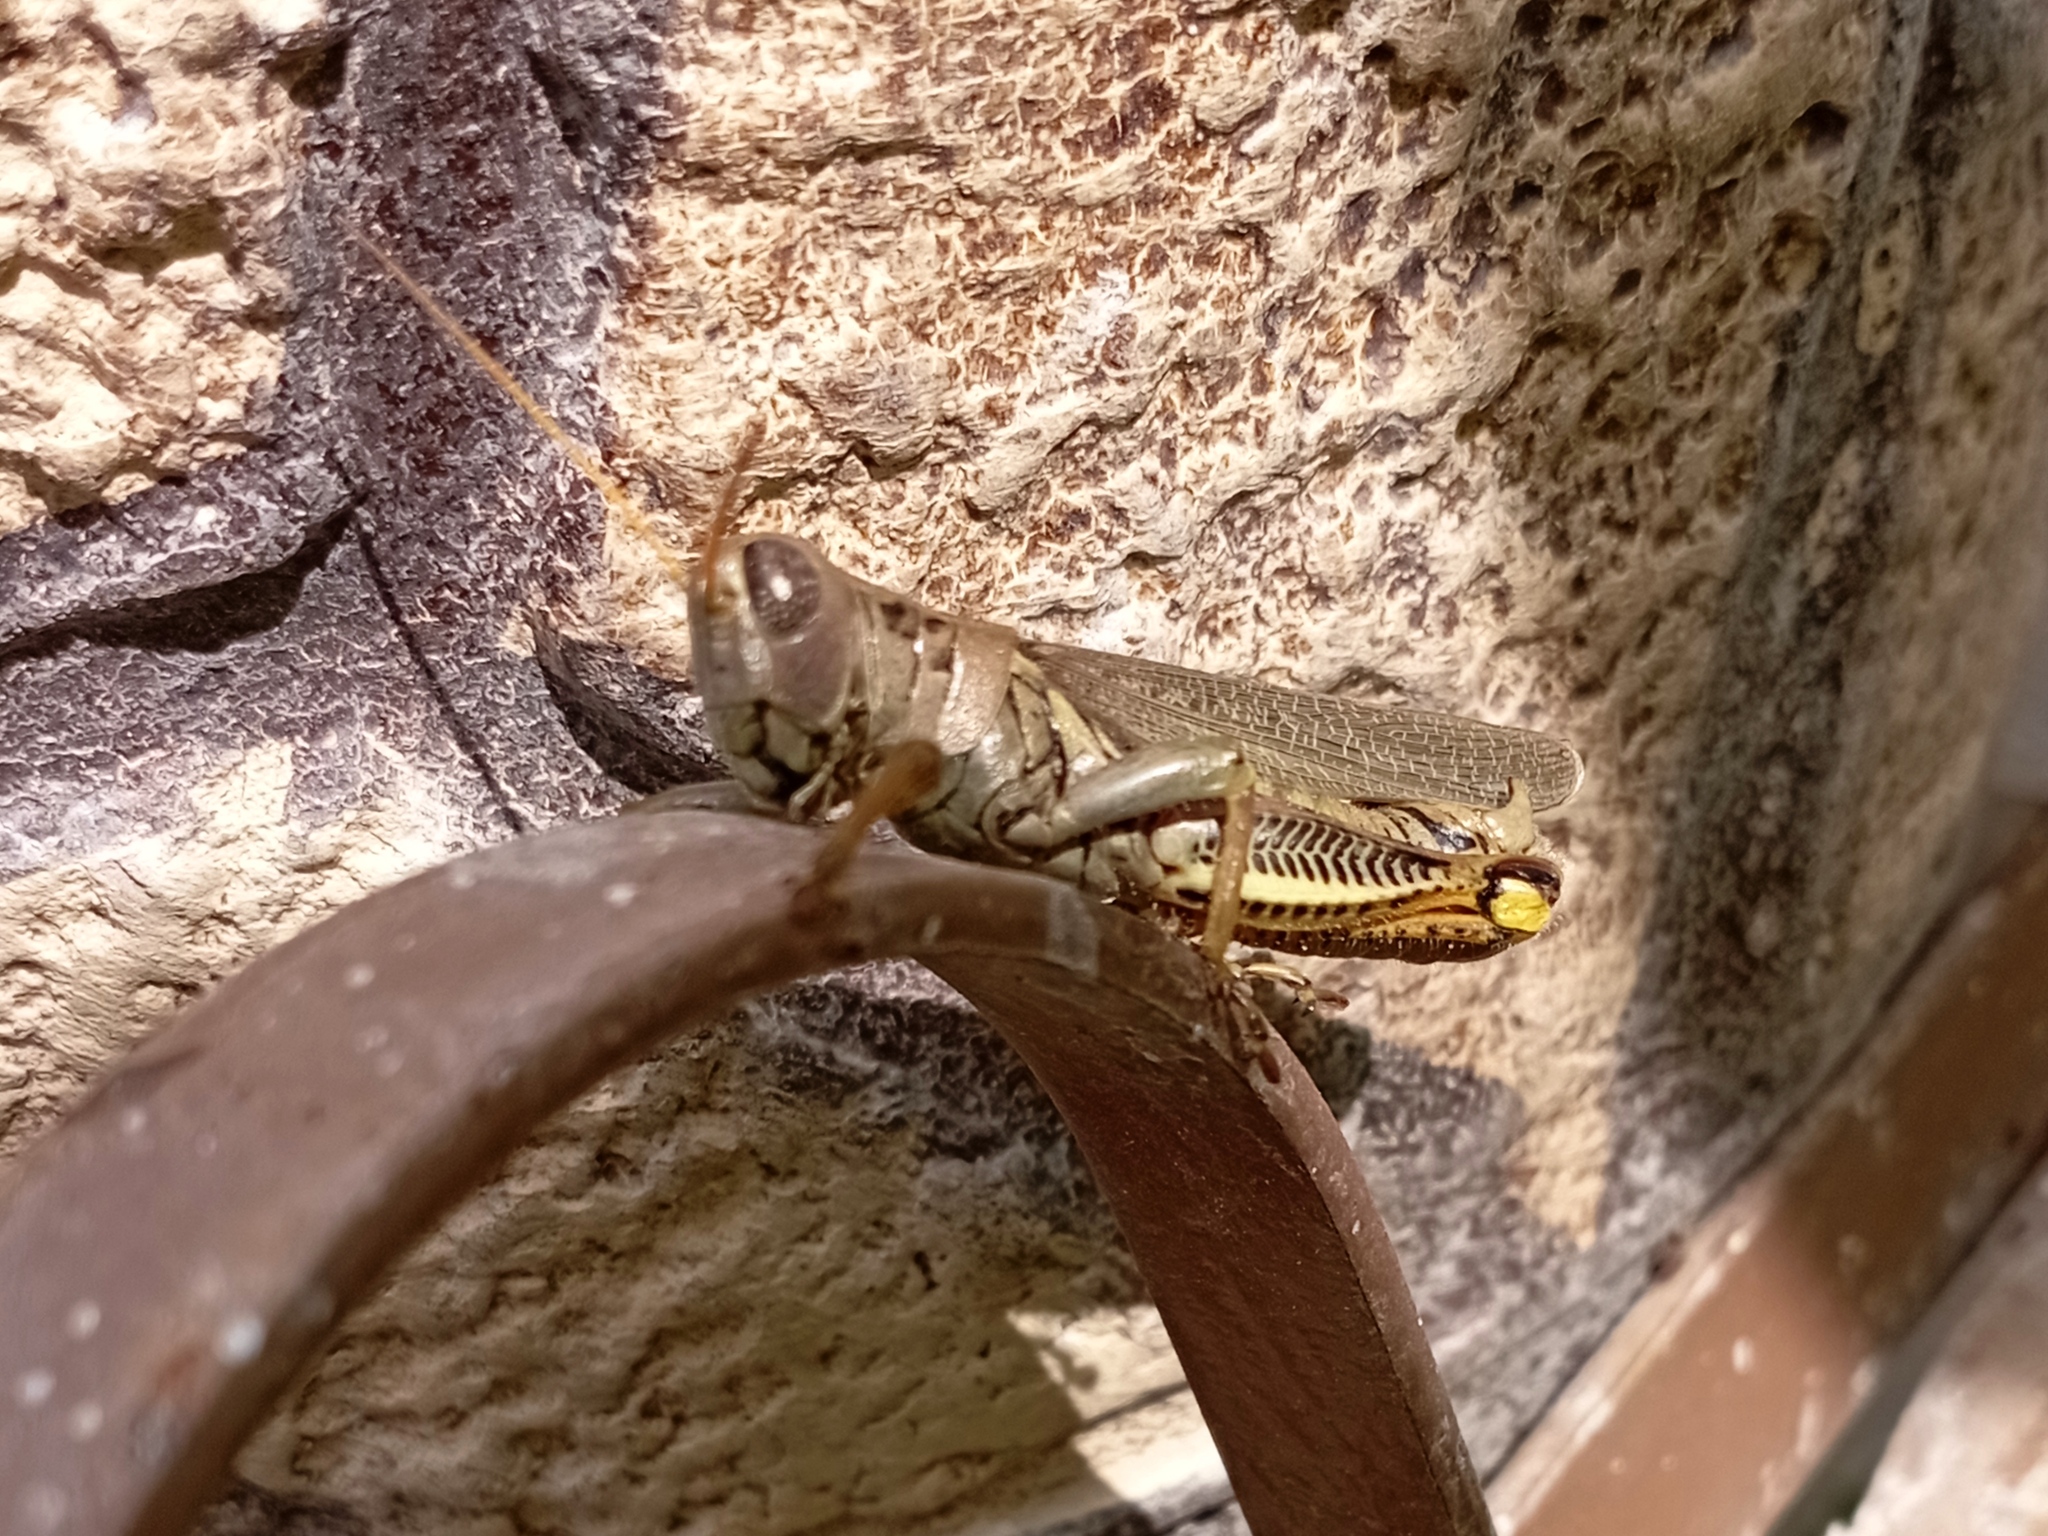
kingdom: Animalia
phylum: Arthropoda
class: Insecta
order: Orthoptera
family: Acrididae
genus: Melanoplus
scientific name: Melanoplus differentialis
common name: Differential grasshopper
